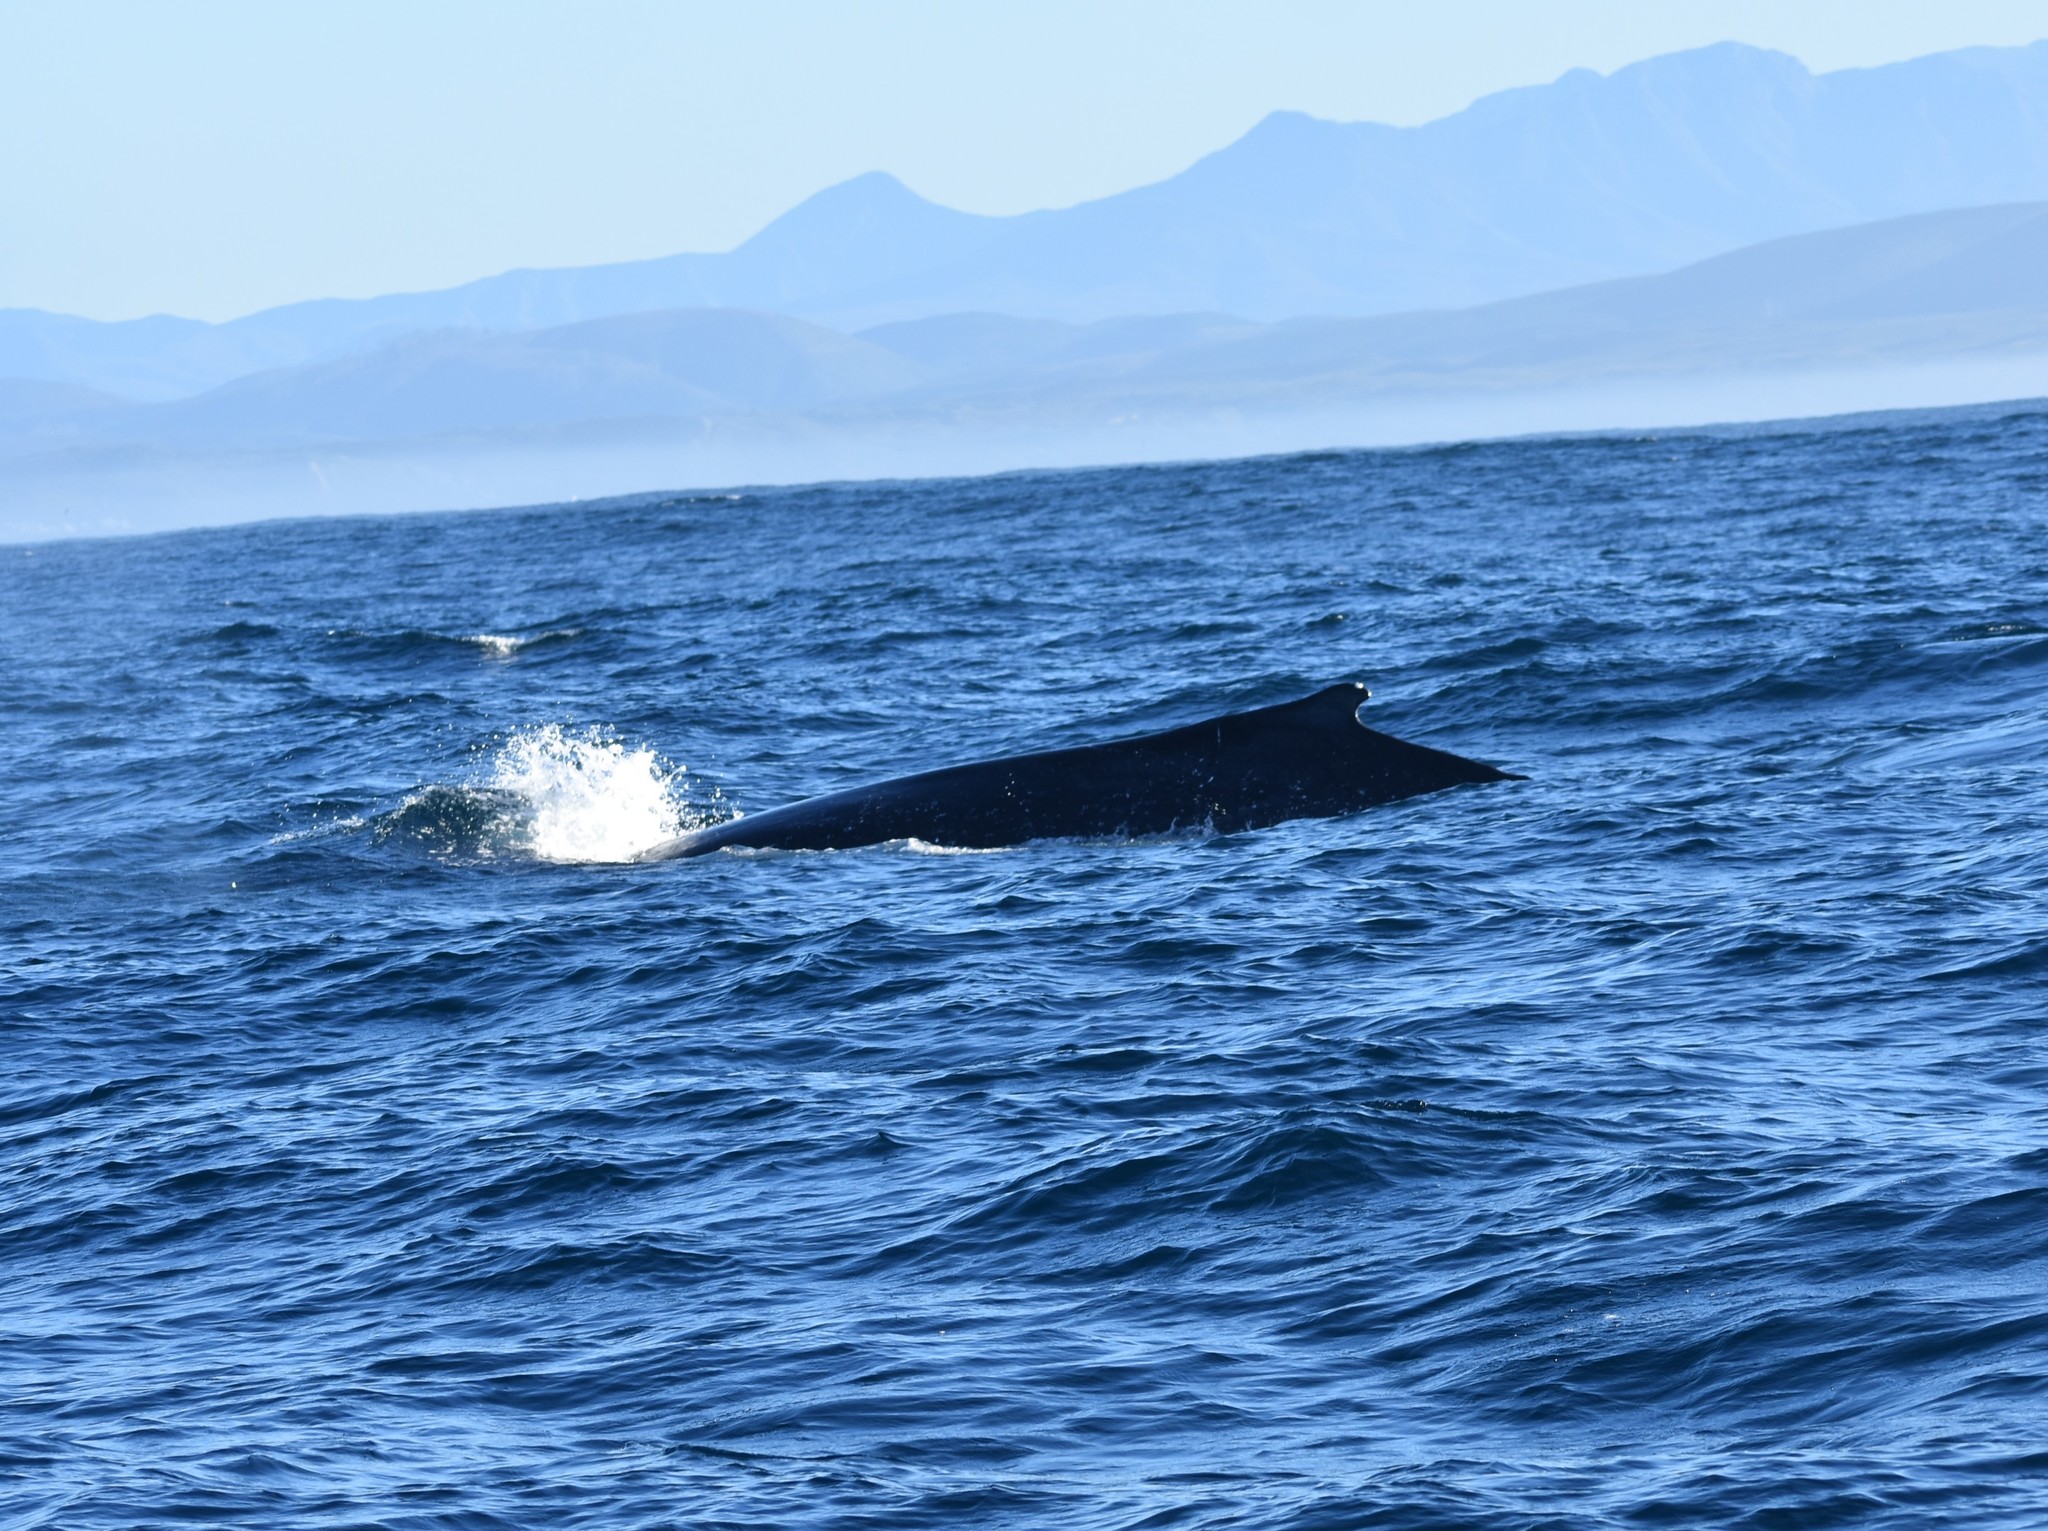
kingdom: Animalia
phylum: Chordata
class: Mammalia
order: Cetacea
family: Balaenopteridae
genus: Megaptera
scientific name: Megaptera novaeangliae
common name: Humpback whale
